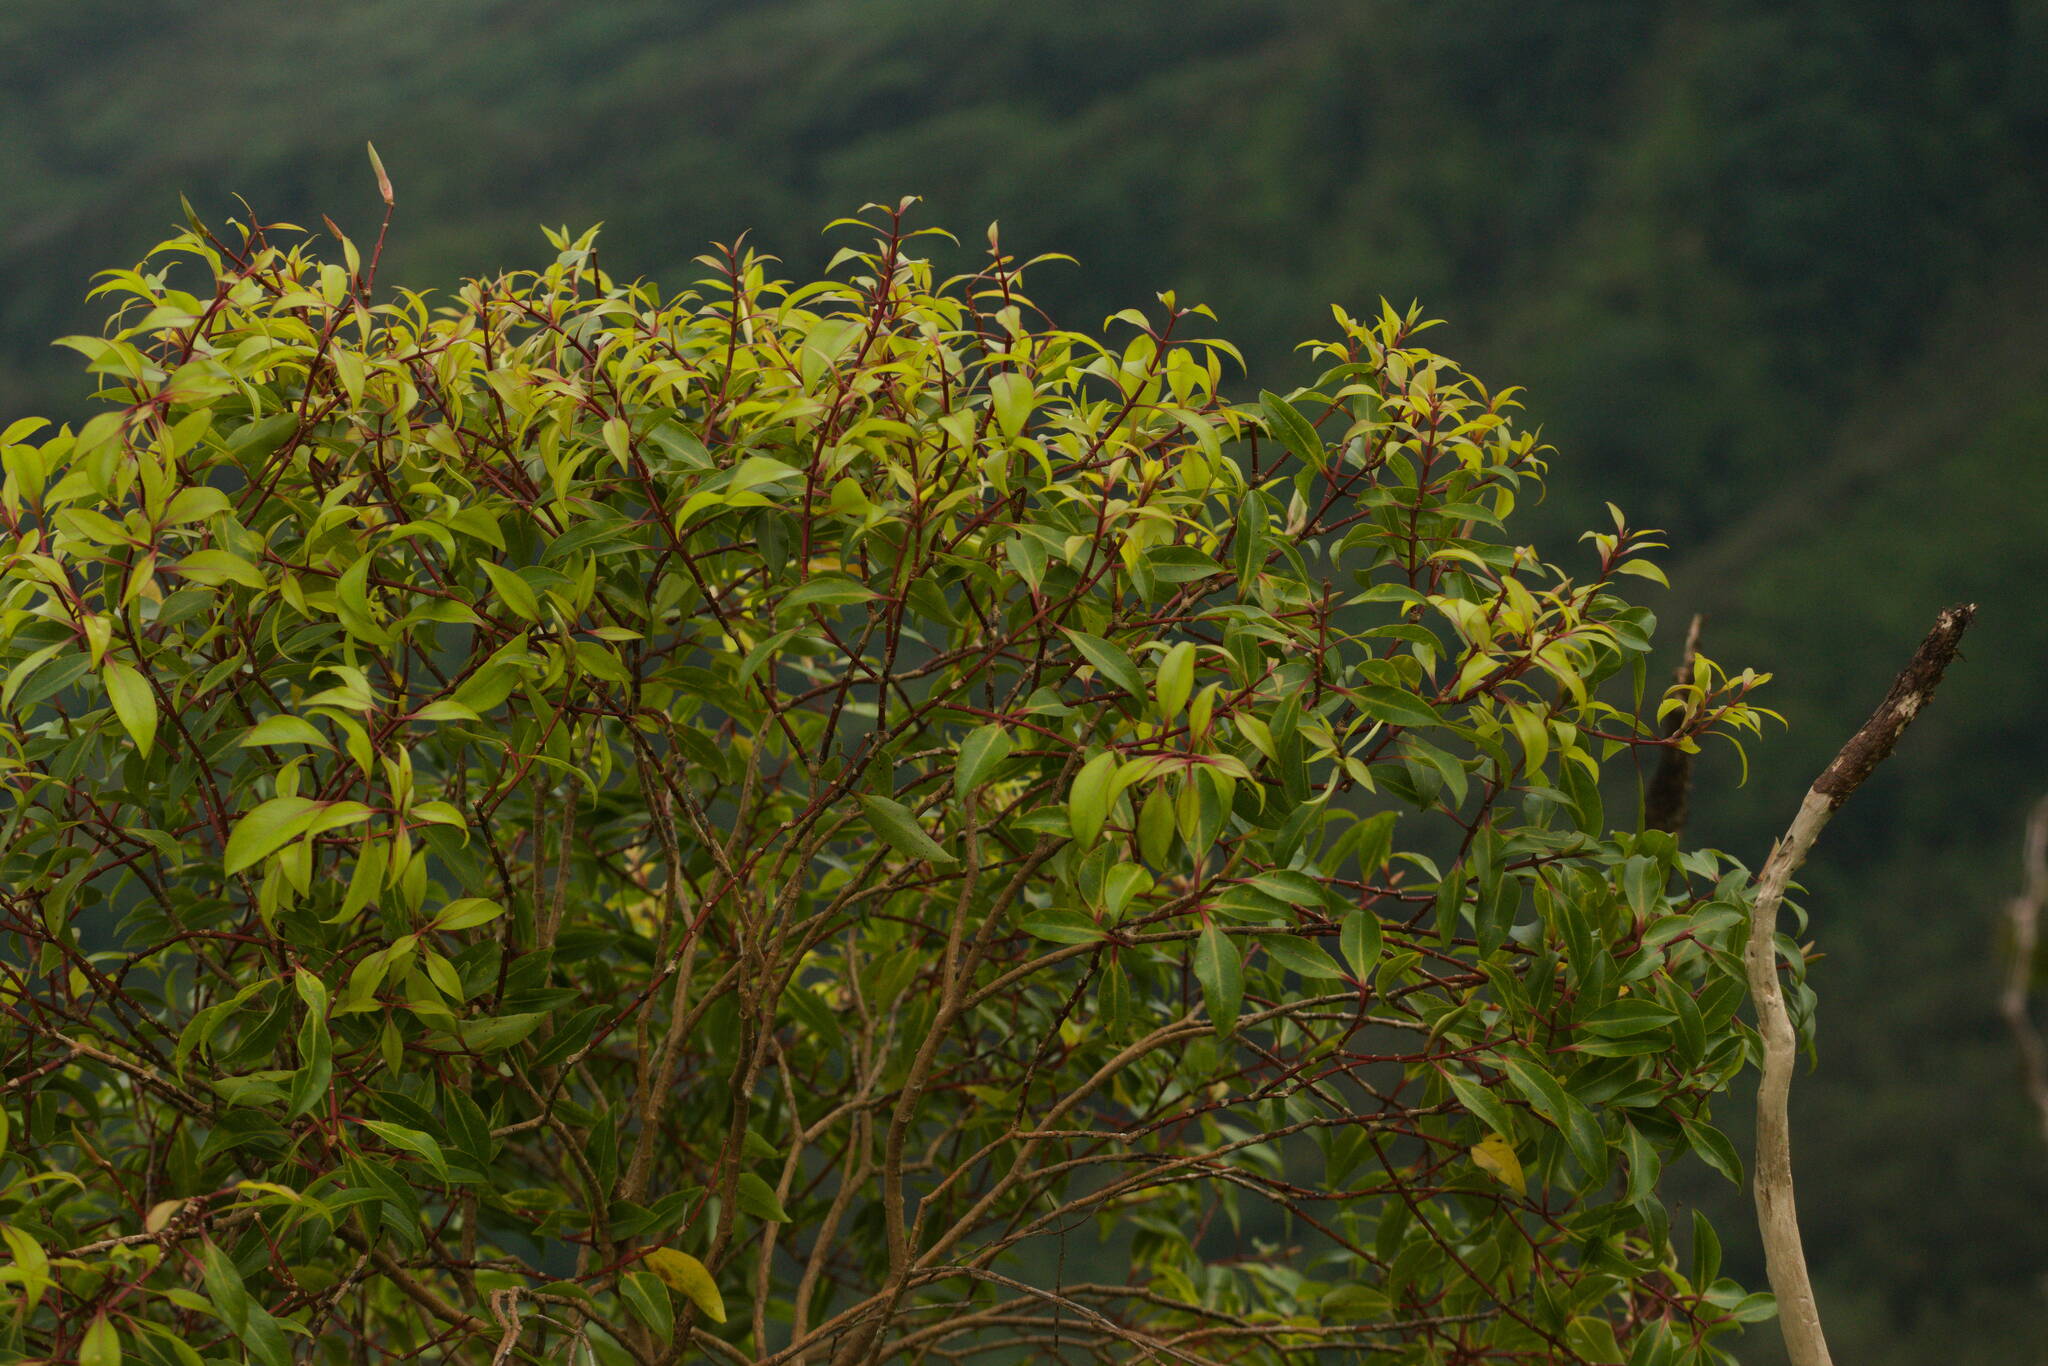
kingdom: Plantae
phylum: Tracheophyta
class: Magnoliopsida
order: Myrtales
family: Myrtaceae
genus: Metrosideros
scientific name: Metrosideros tremuloides
